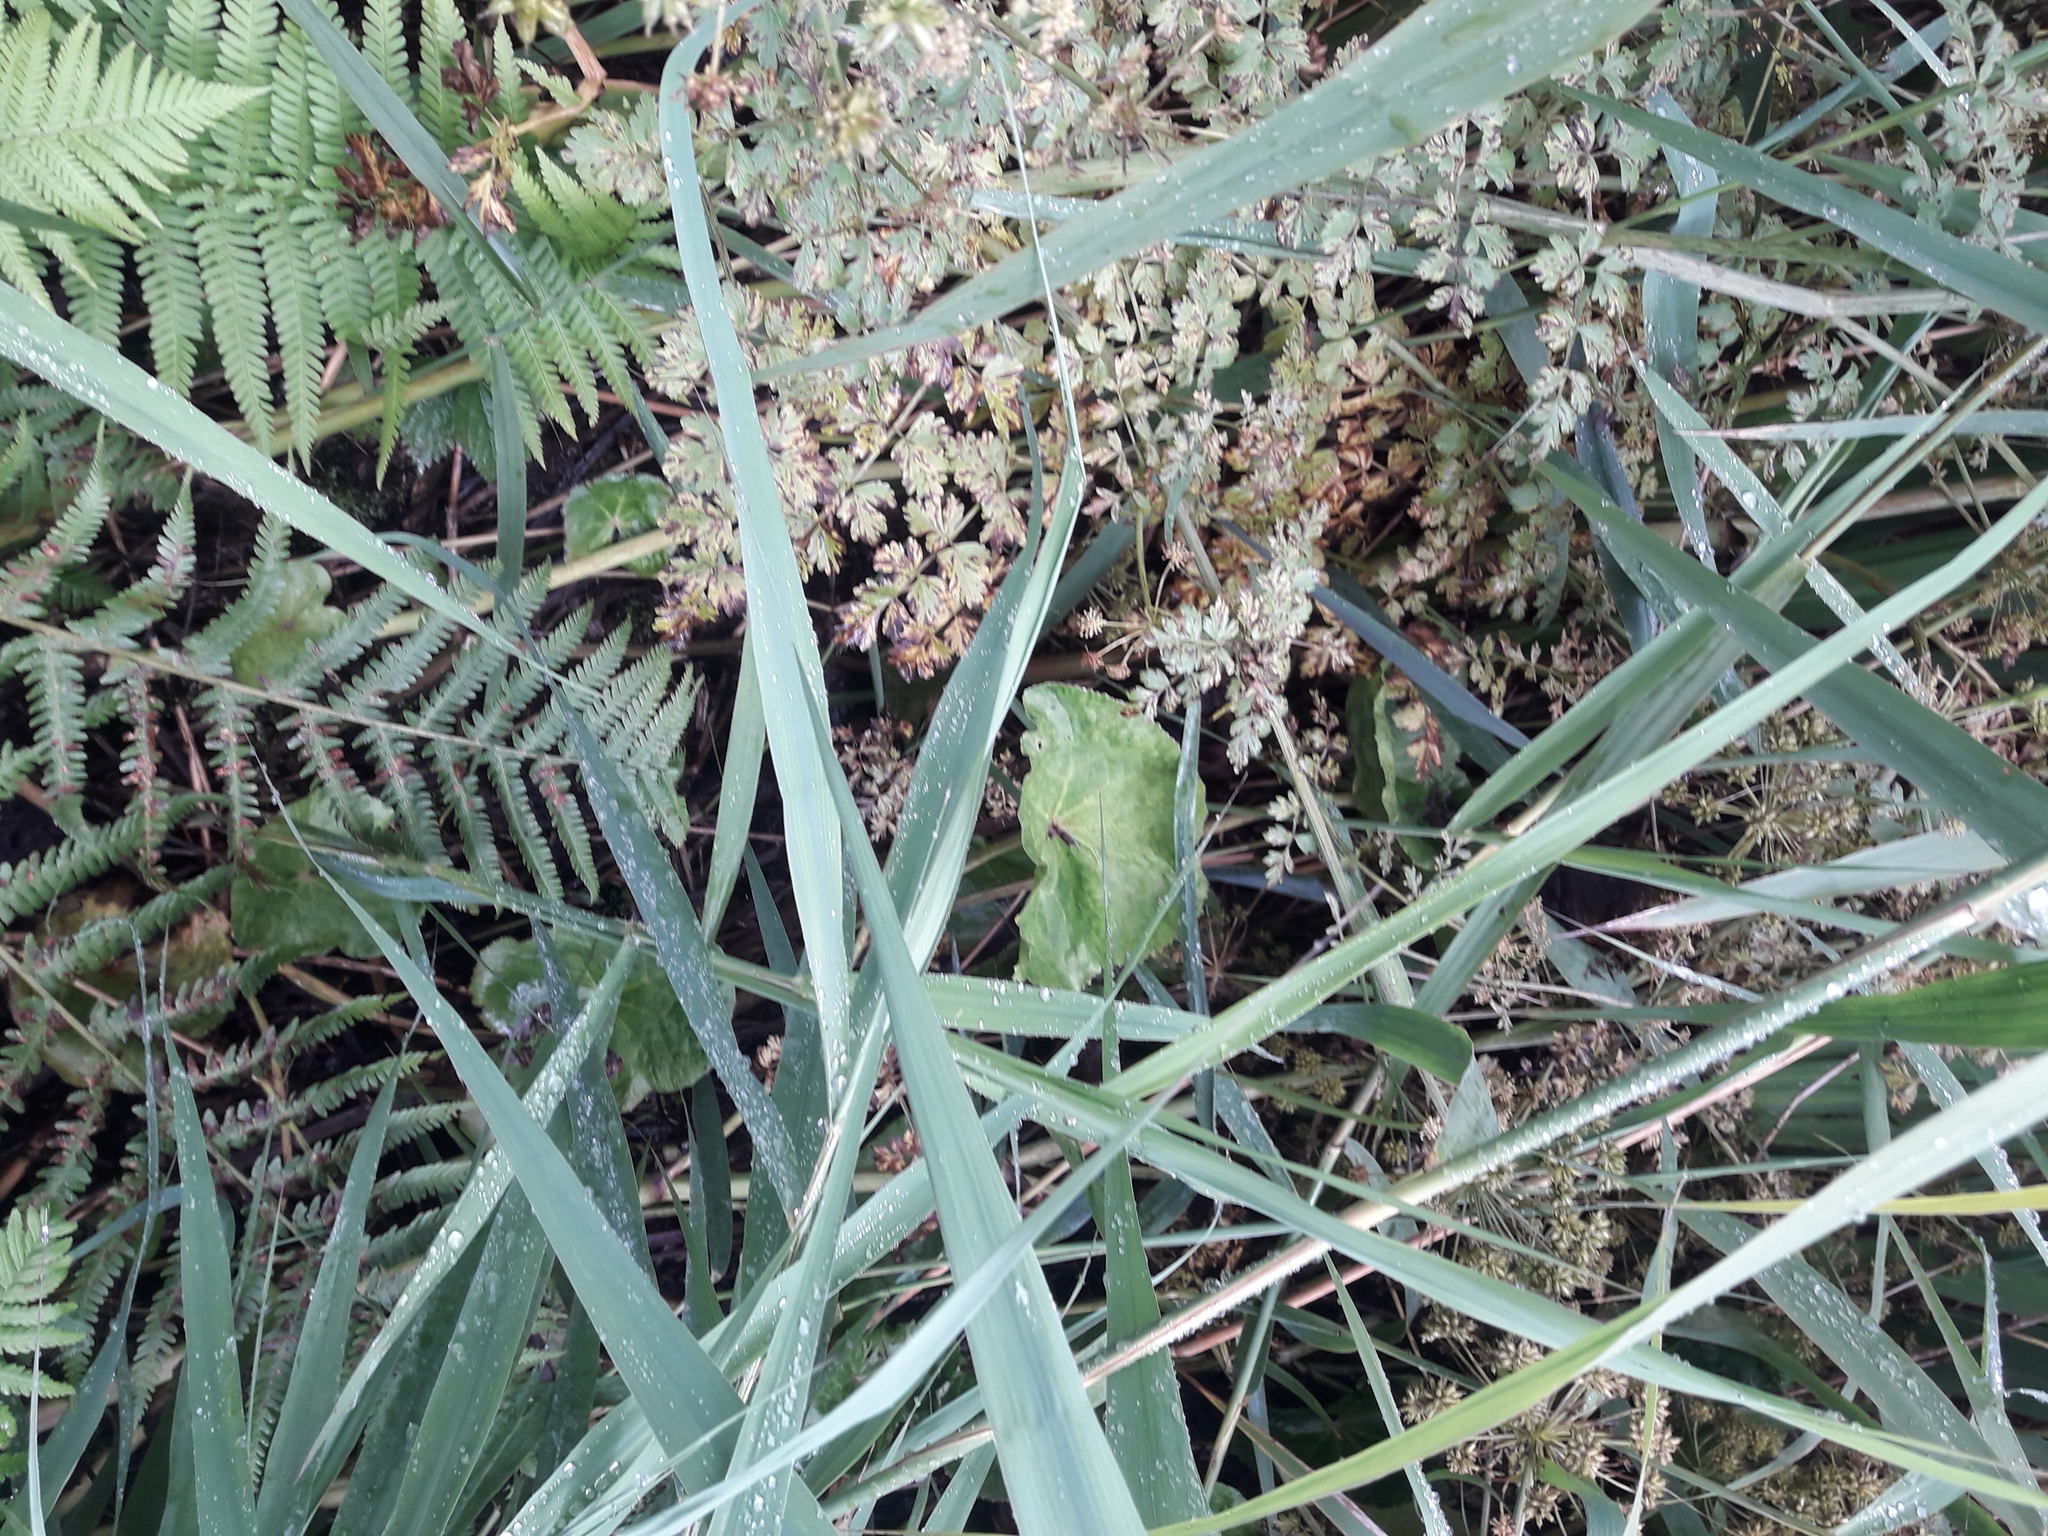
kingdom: Plantae
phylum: Tracheophyta
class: Magnoliopsida
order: Ranunculales
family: Ranunculaceae
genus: Caltha
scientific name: Caltha palustris
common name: Marsh marigold
